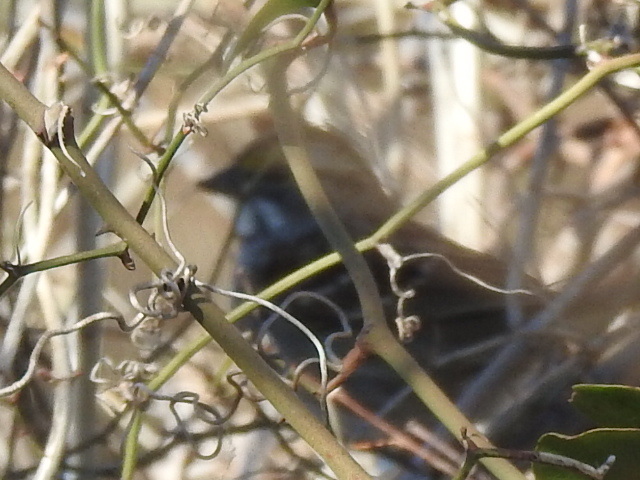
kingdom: Animalia
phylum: Chordata
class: Aves
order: Passeriformes
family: Passerellidae
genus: Zonotrichia
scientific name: Zonotrichia albicollis
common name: White-throated sparrow
